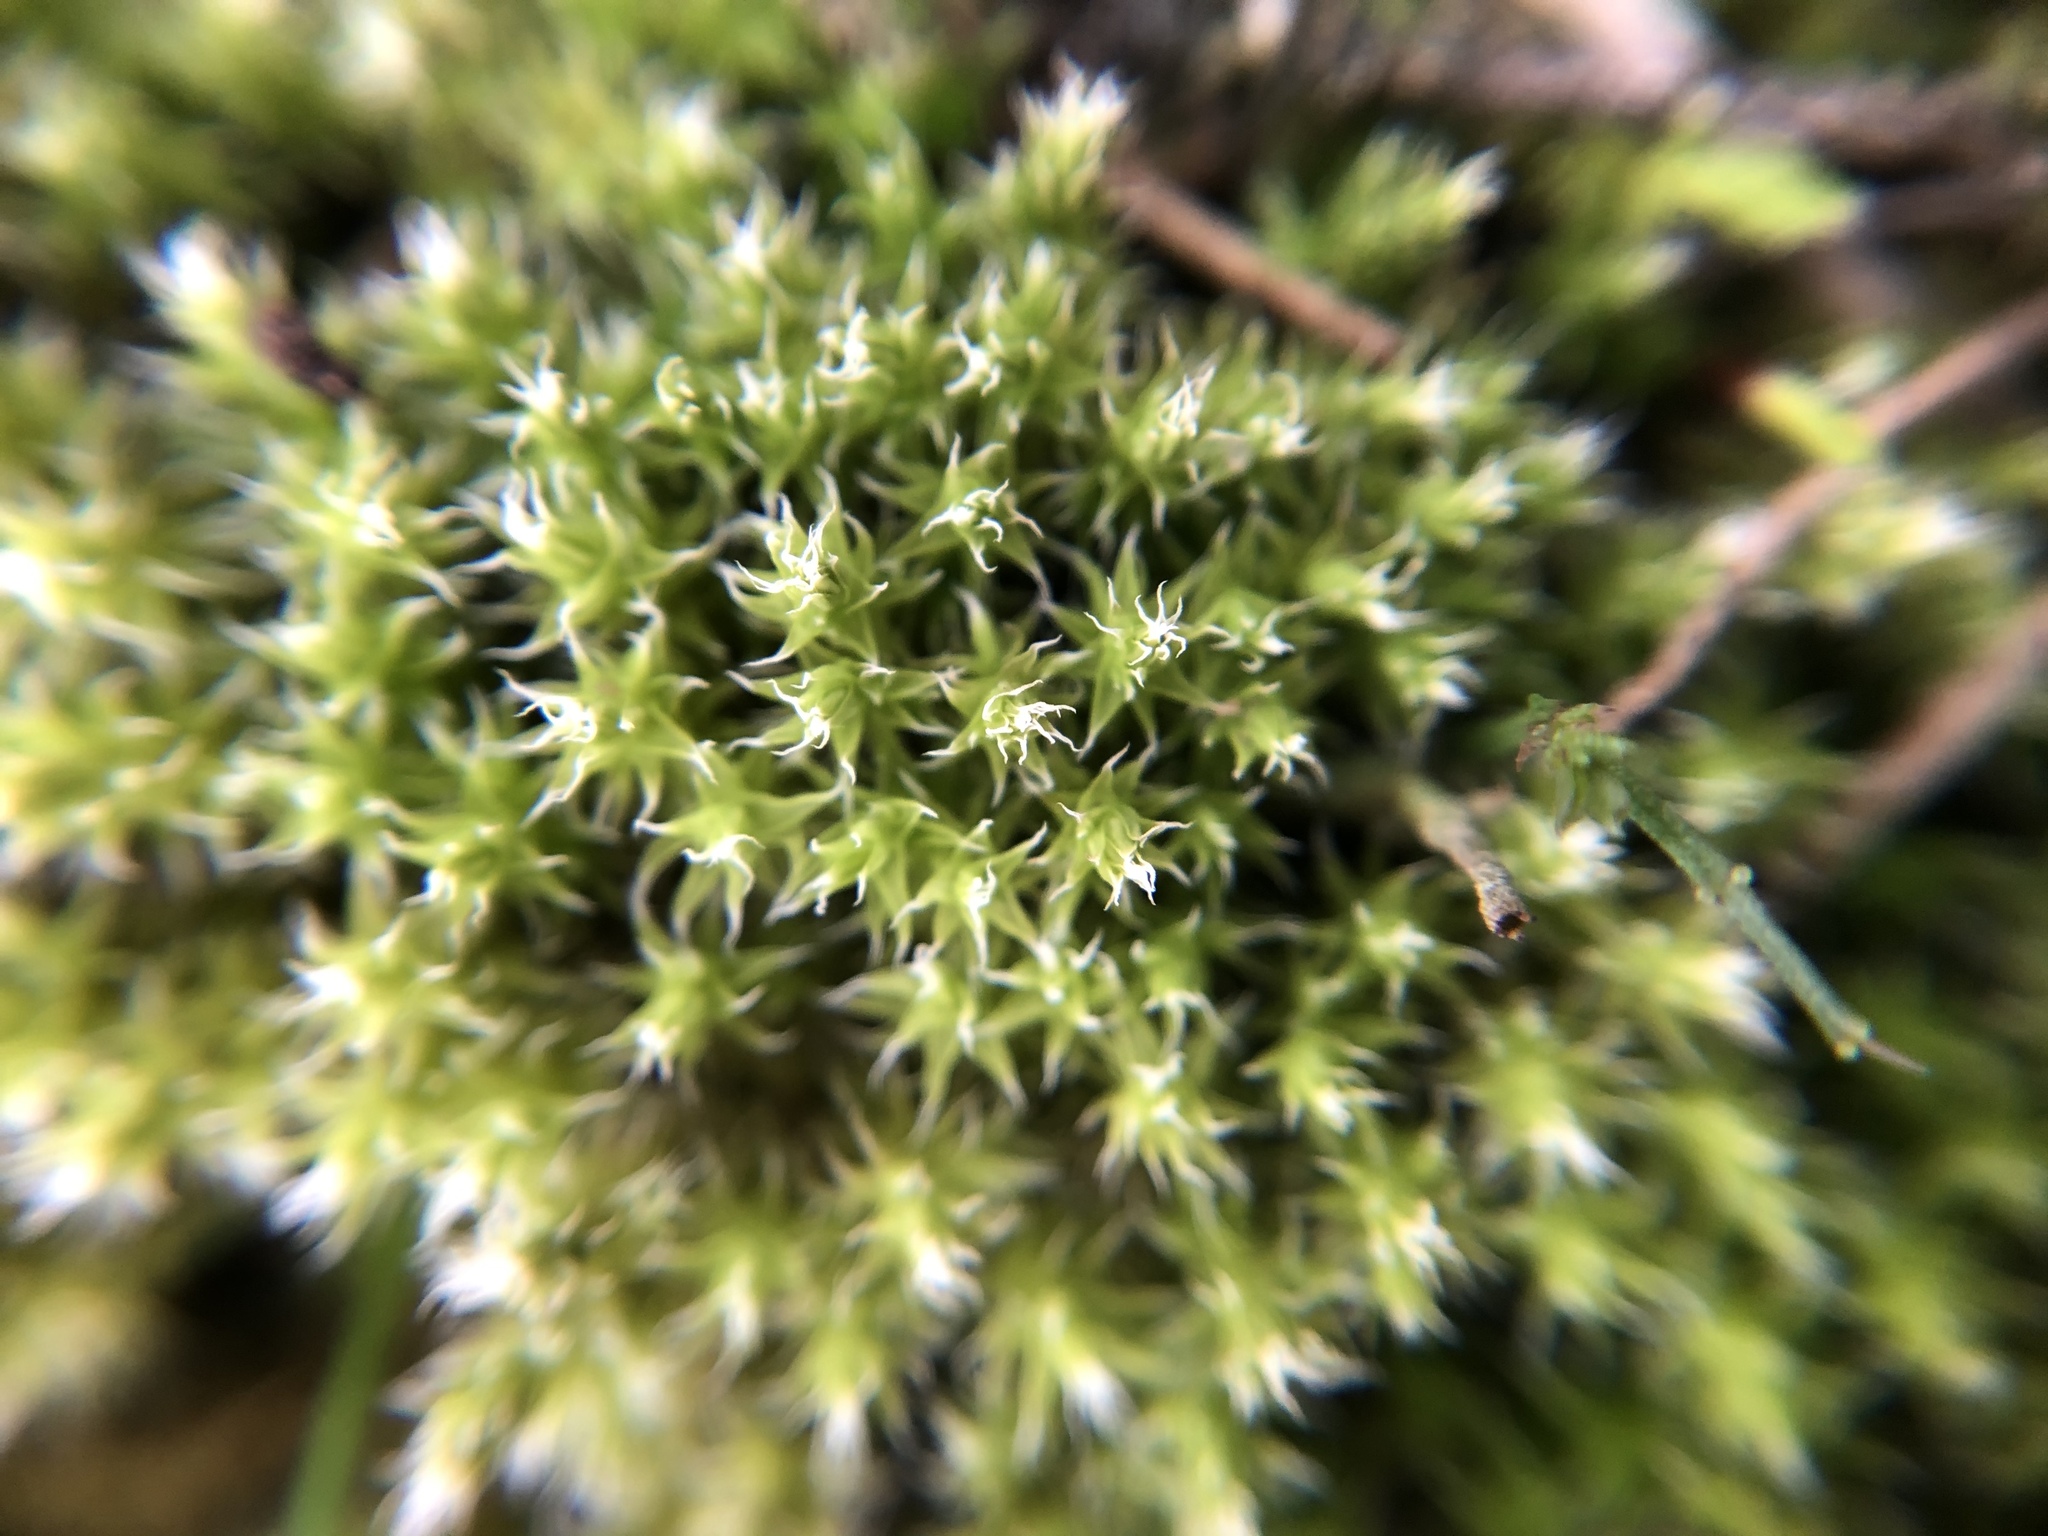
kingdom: Plantae
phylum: Bryophyta
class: Bryopsida
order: Grimmiales
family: Grimmiaceae
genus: Niphotrichum
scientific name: Niphotrichum canescens
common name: Hoary fringe-moss
